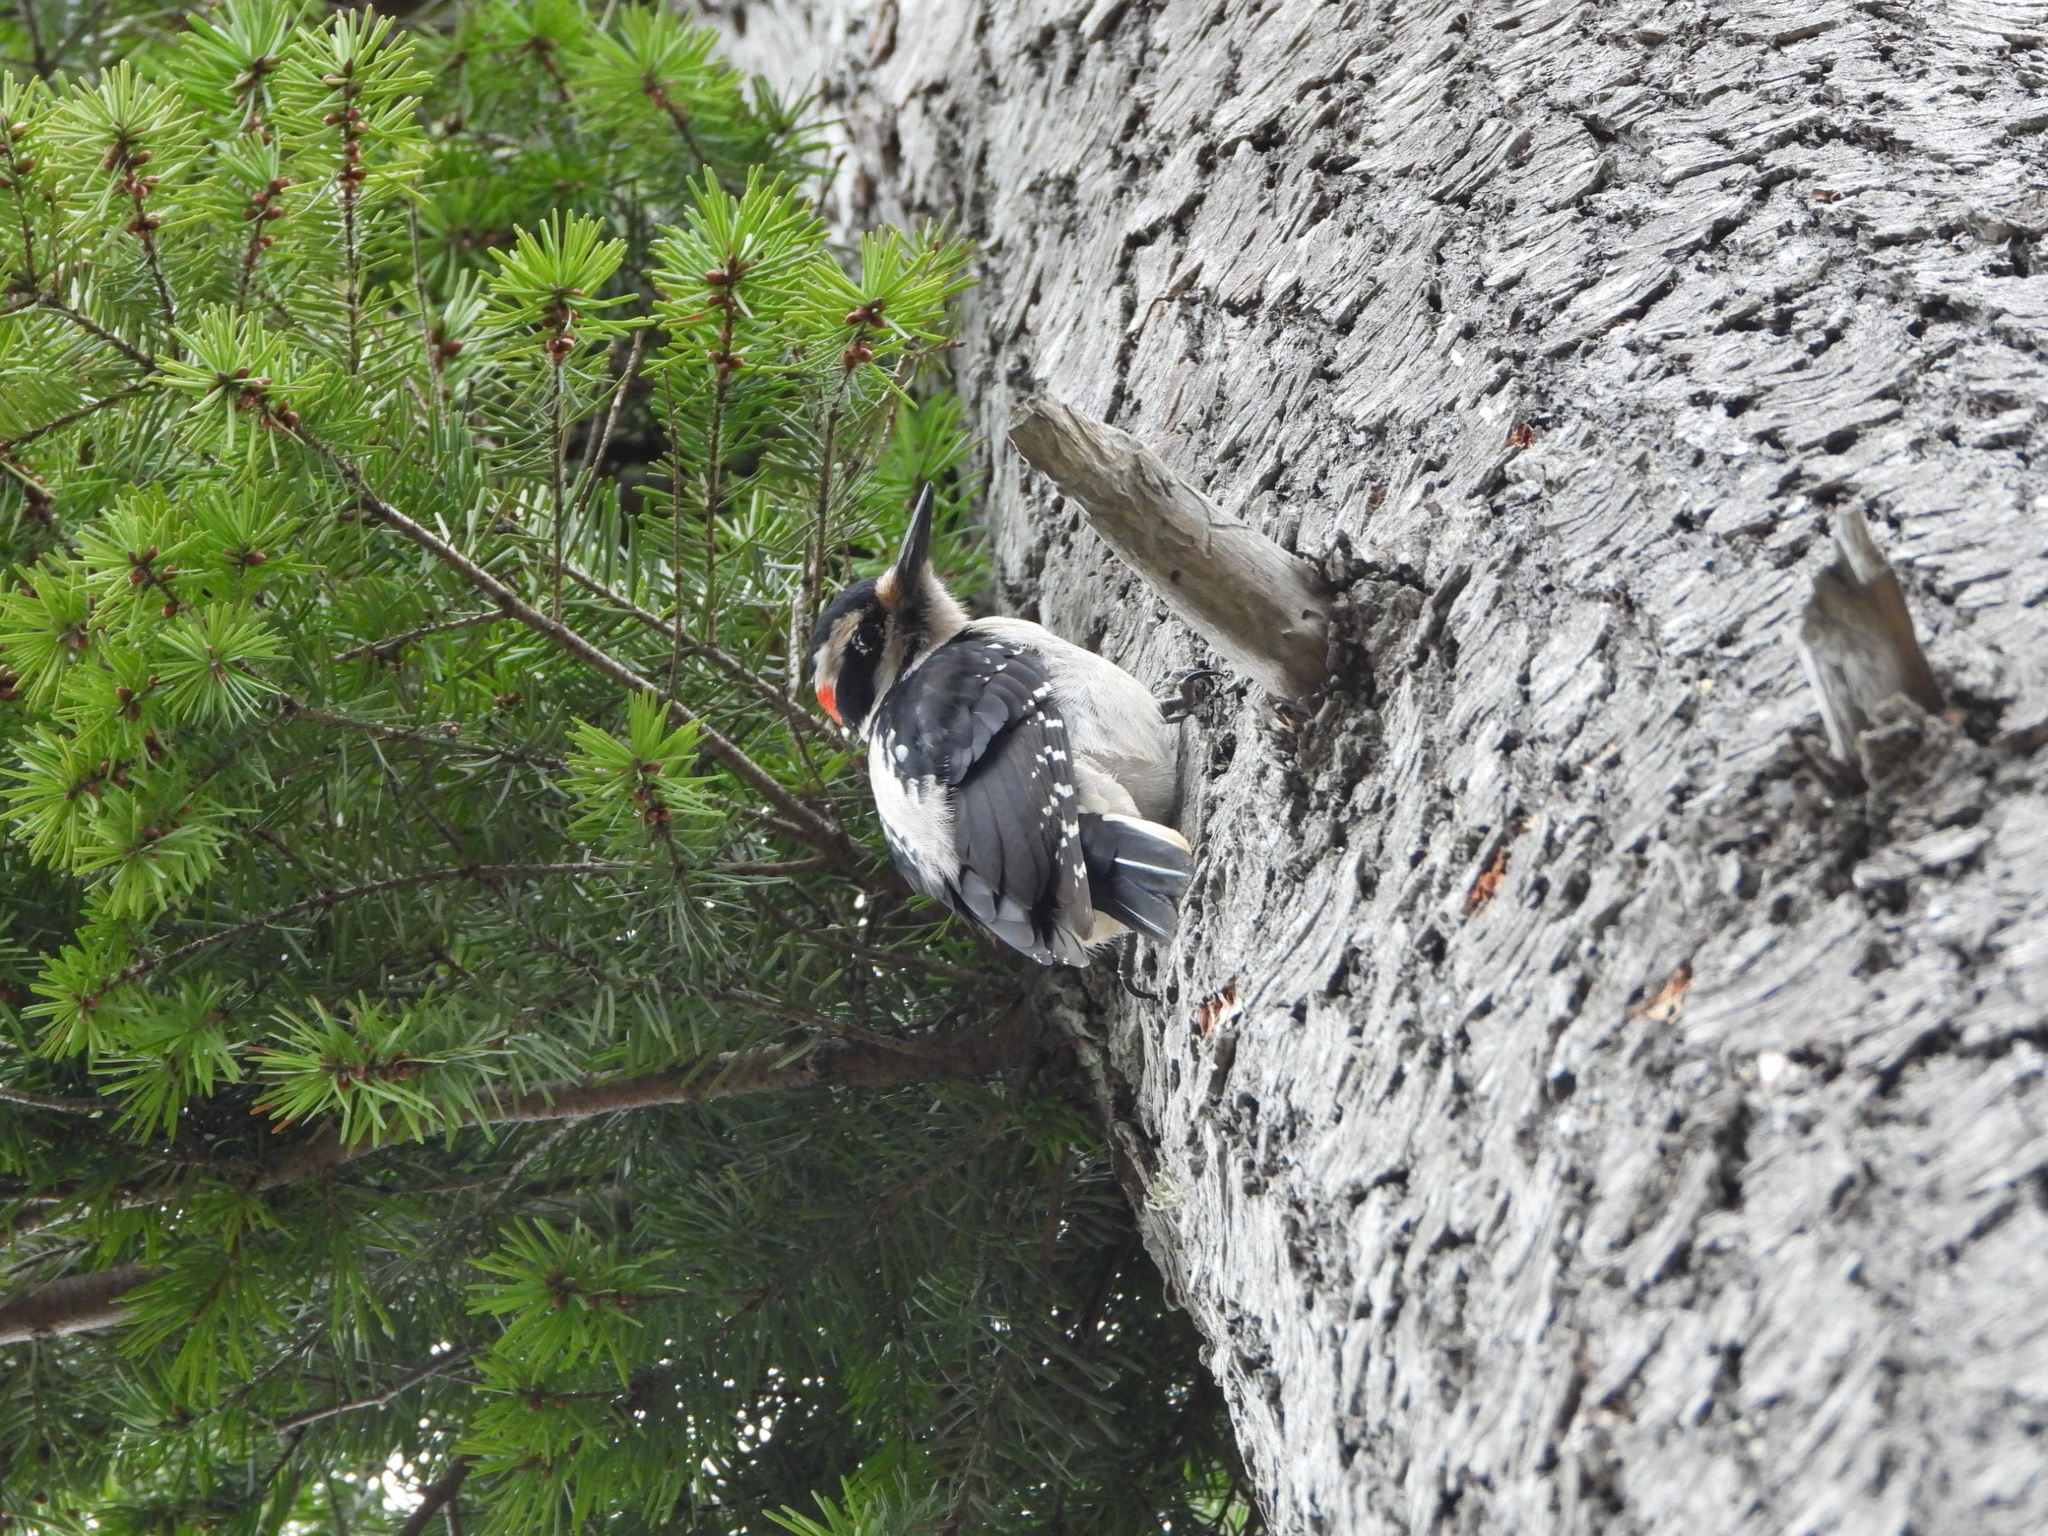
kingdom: Animalia
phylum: Chordata
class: Aves
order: Piciformes
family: Picidae
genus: Leuconotopicus
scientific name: Leuconotopicus villosus
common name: Hairy woodpecker
